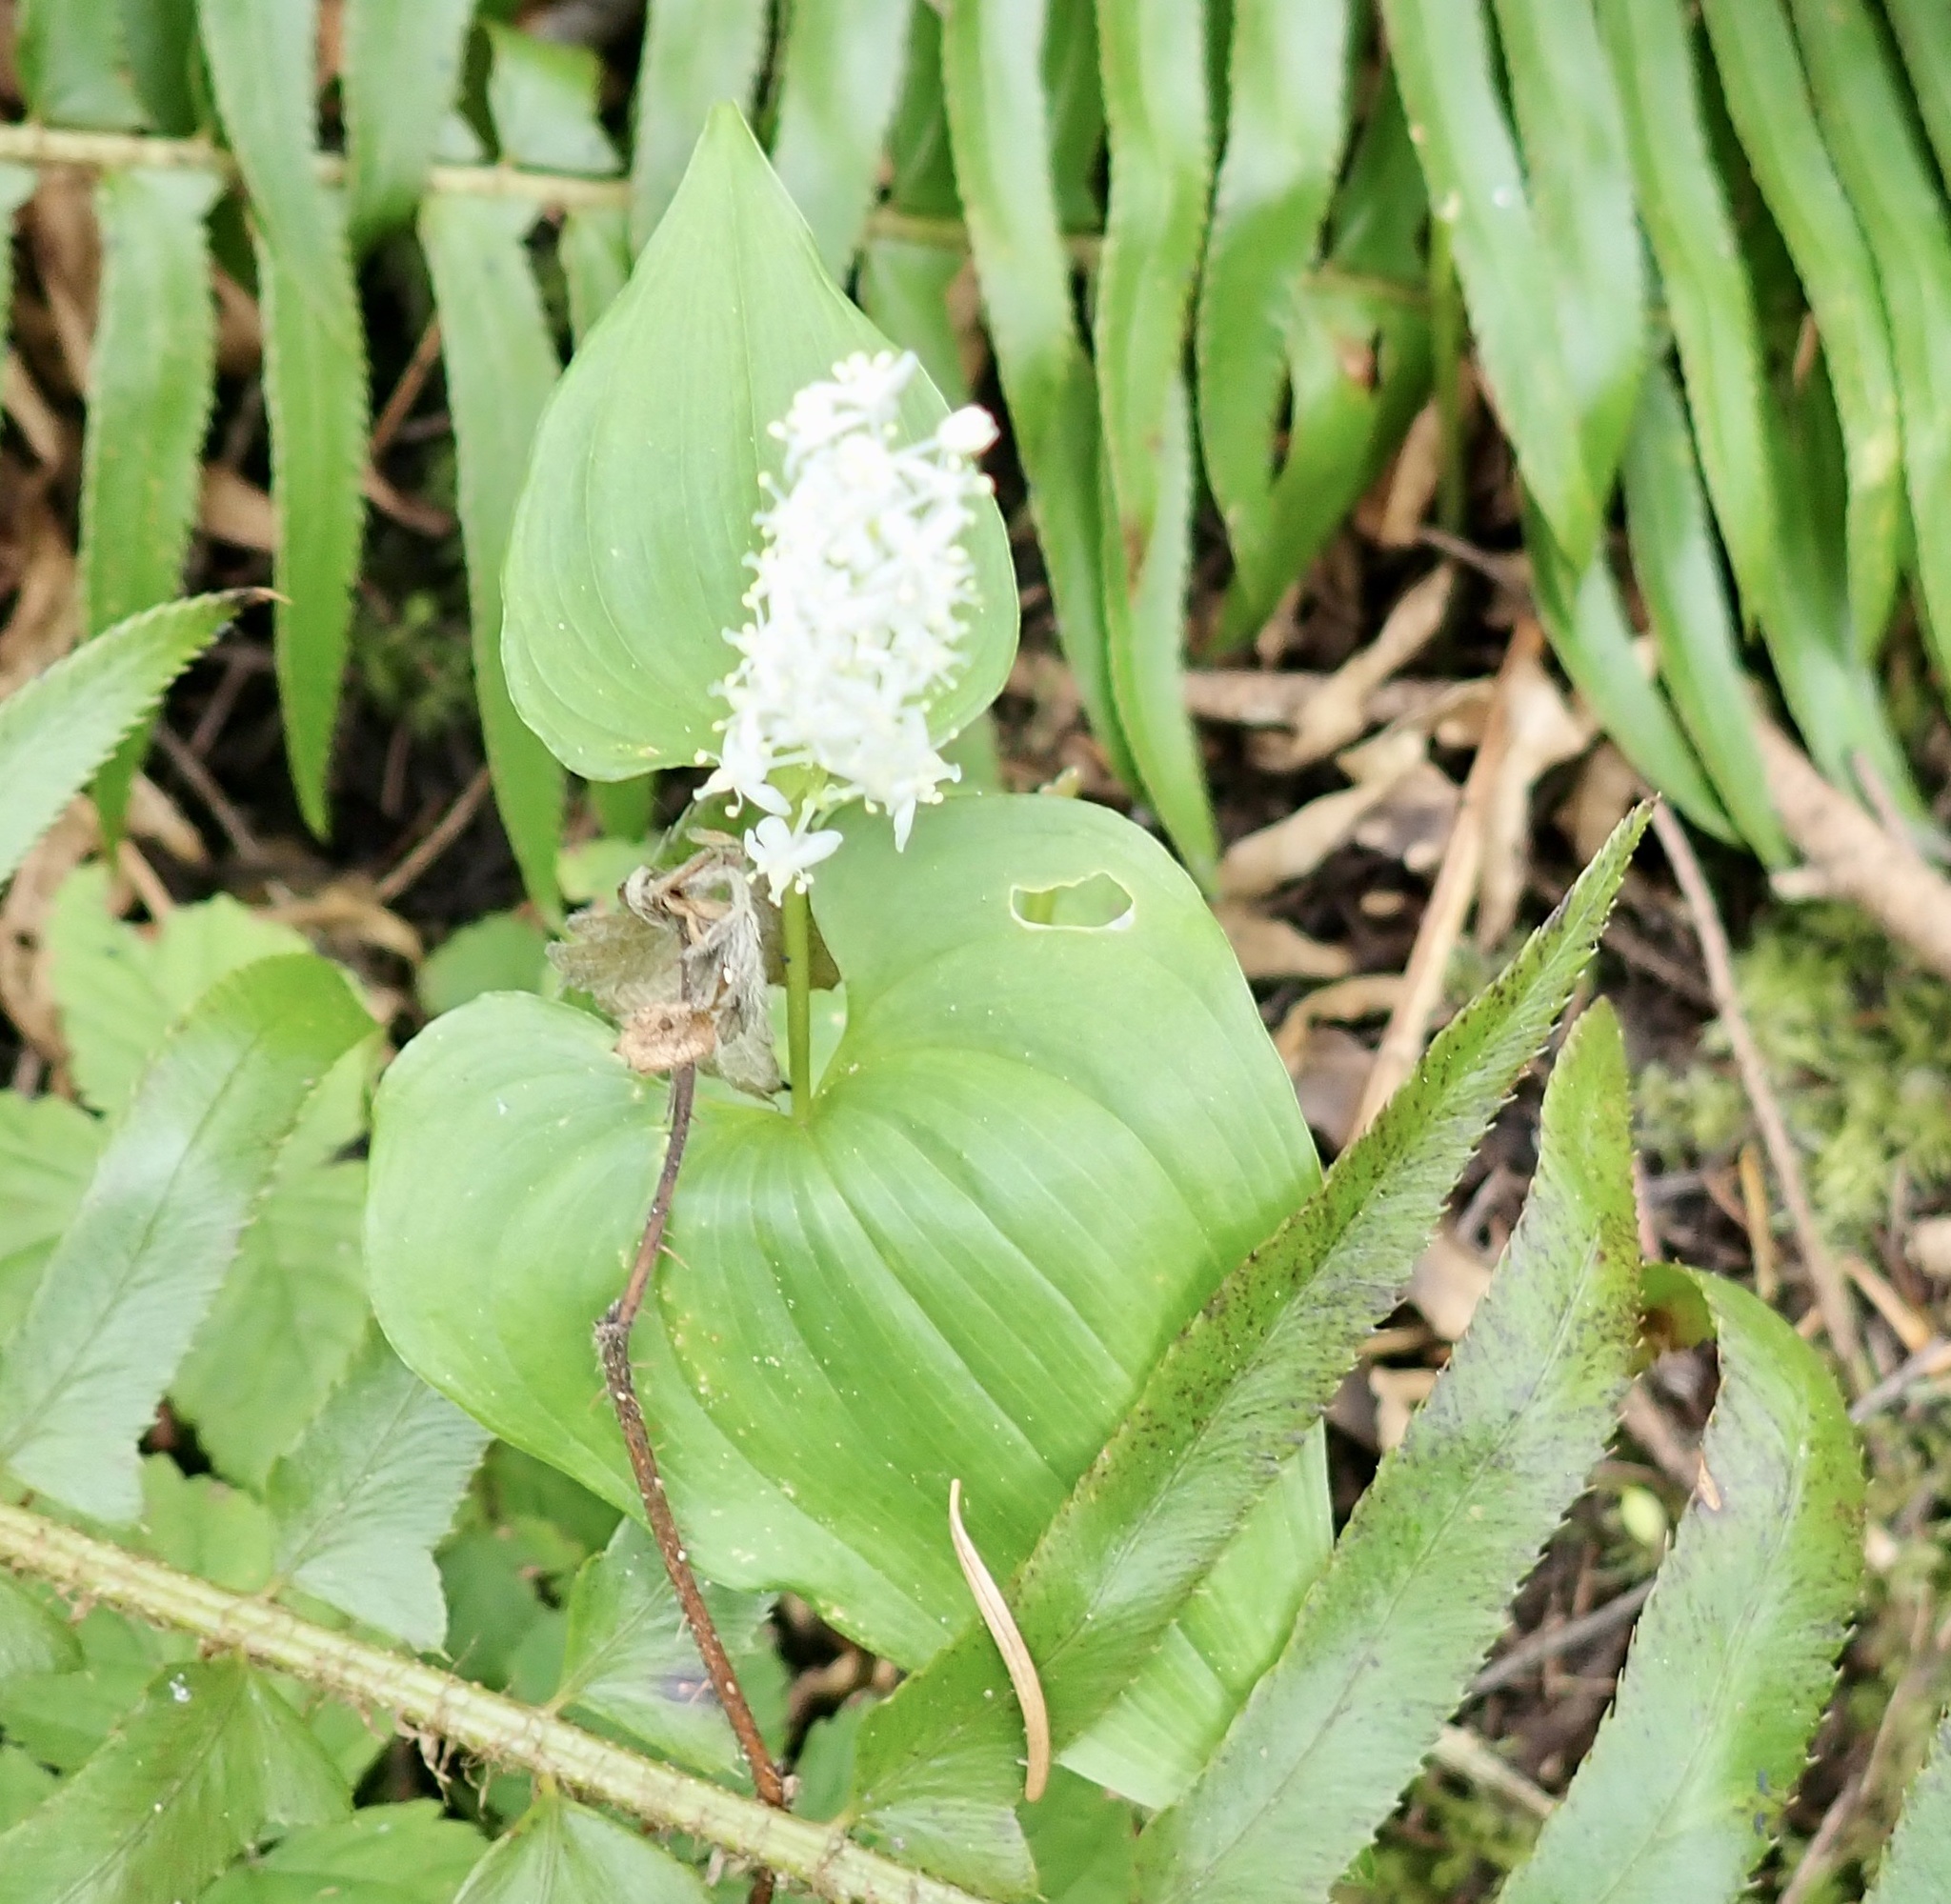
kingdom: Plantae
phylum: Tracheophyta
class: Liliopsida
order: Asparagales
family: Asparagaceae
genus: Maianthemum
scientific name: Maianthemum dilatatum
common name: False lily-of-the-valley
